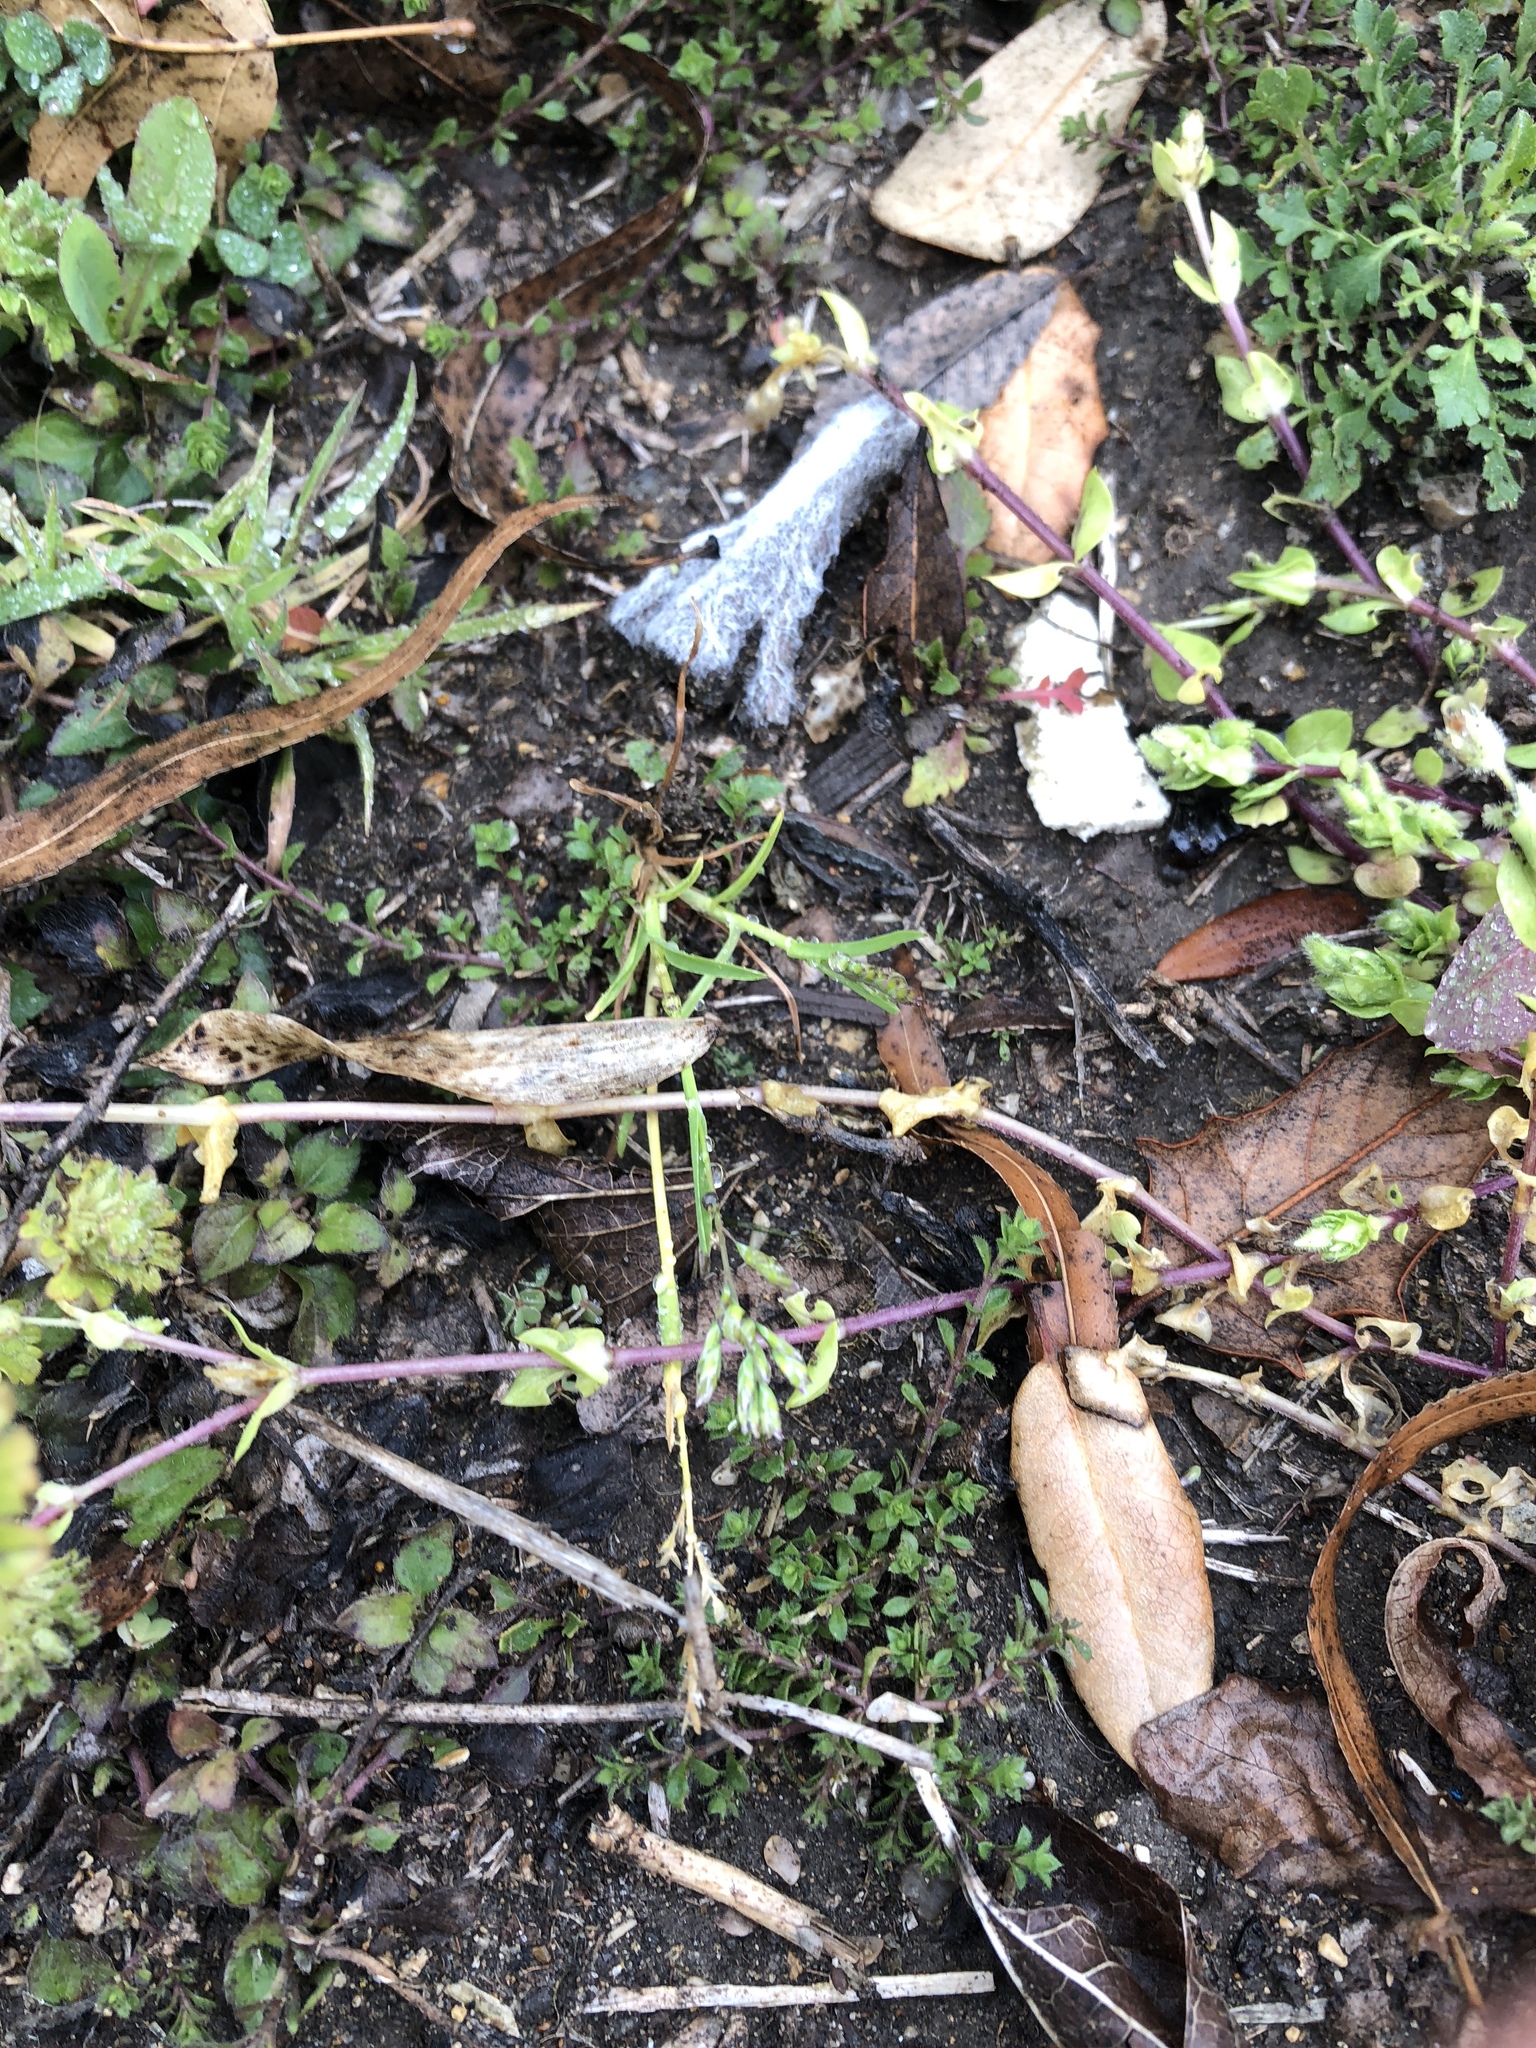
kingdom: Plantae
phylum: Tracheophyta
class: Liliopsida
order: Poales
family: Poaceae
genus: Poa
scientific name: Poa annua
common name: Annual bluegrass
